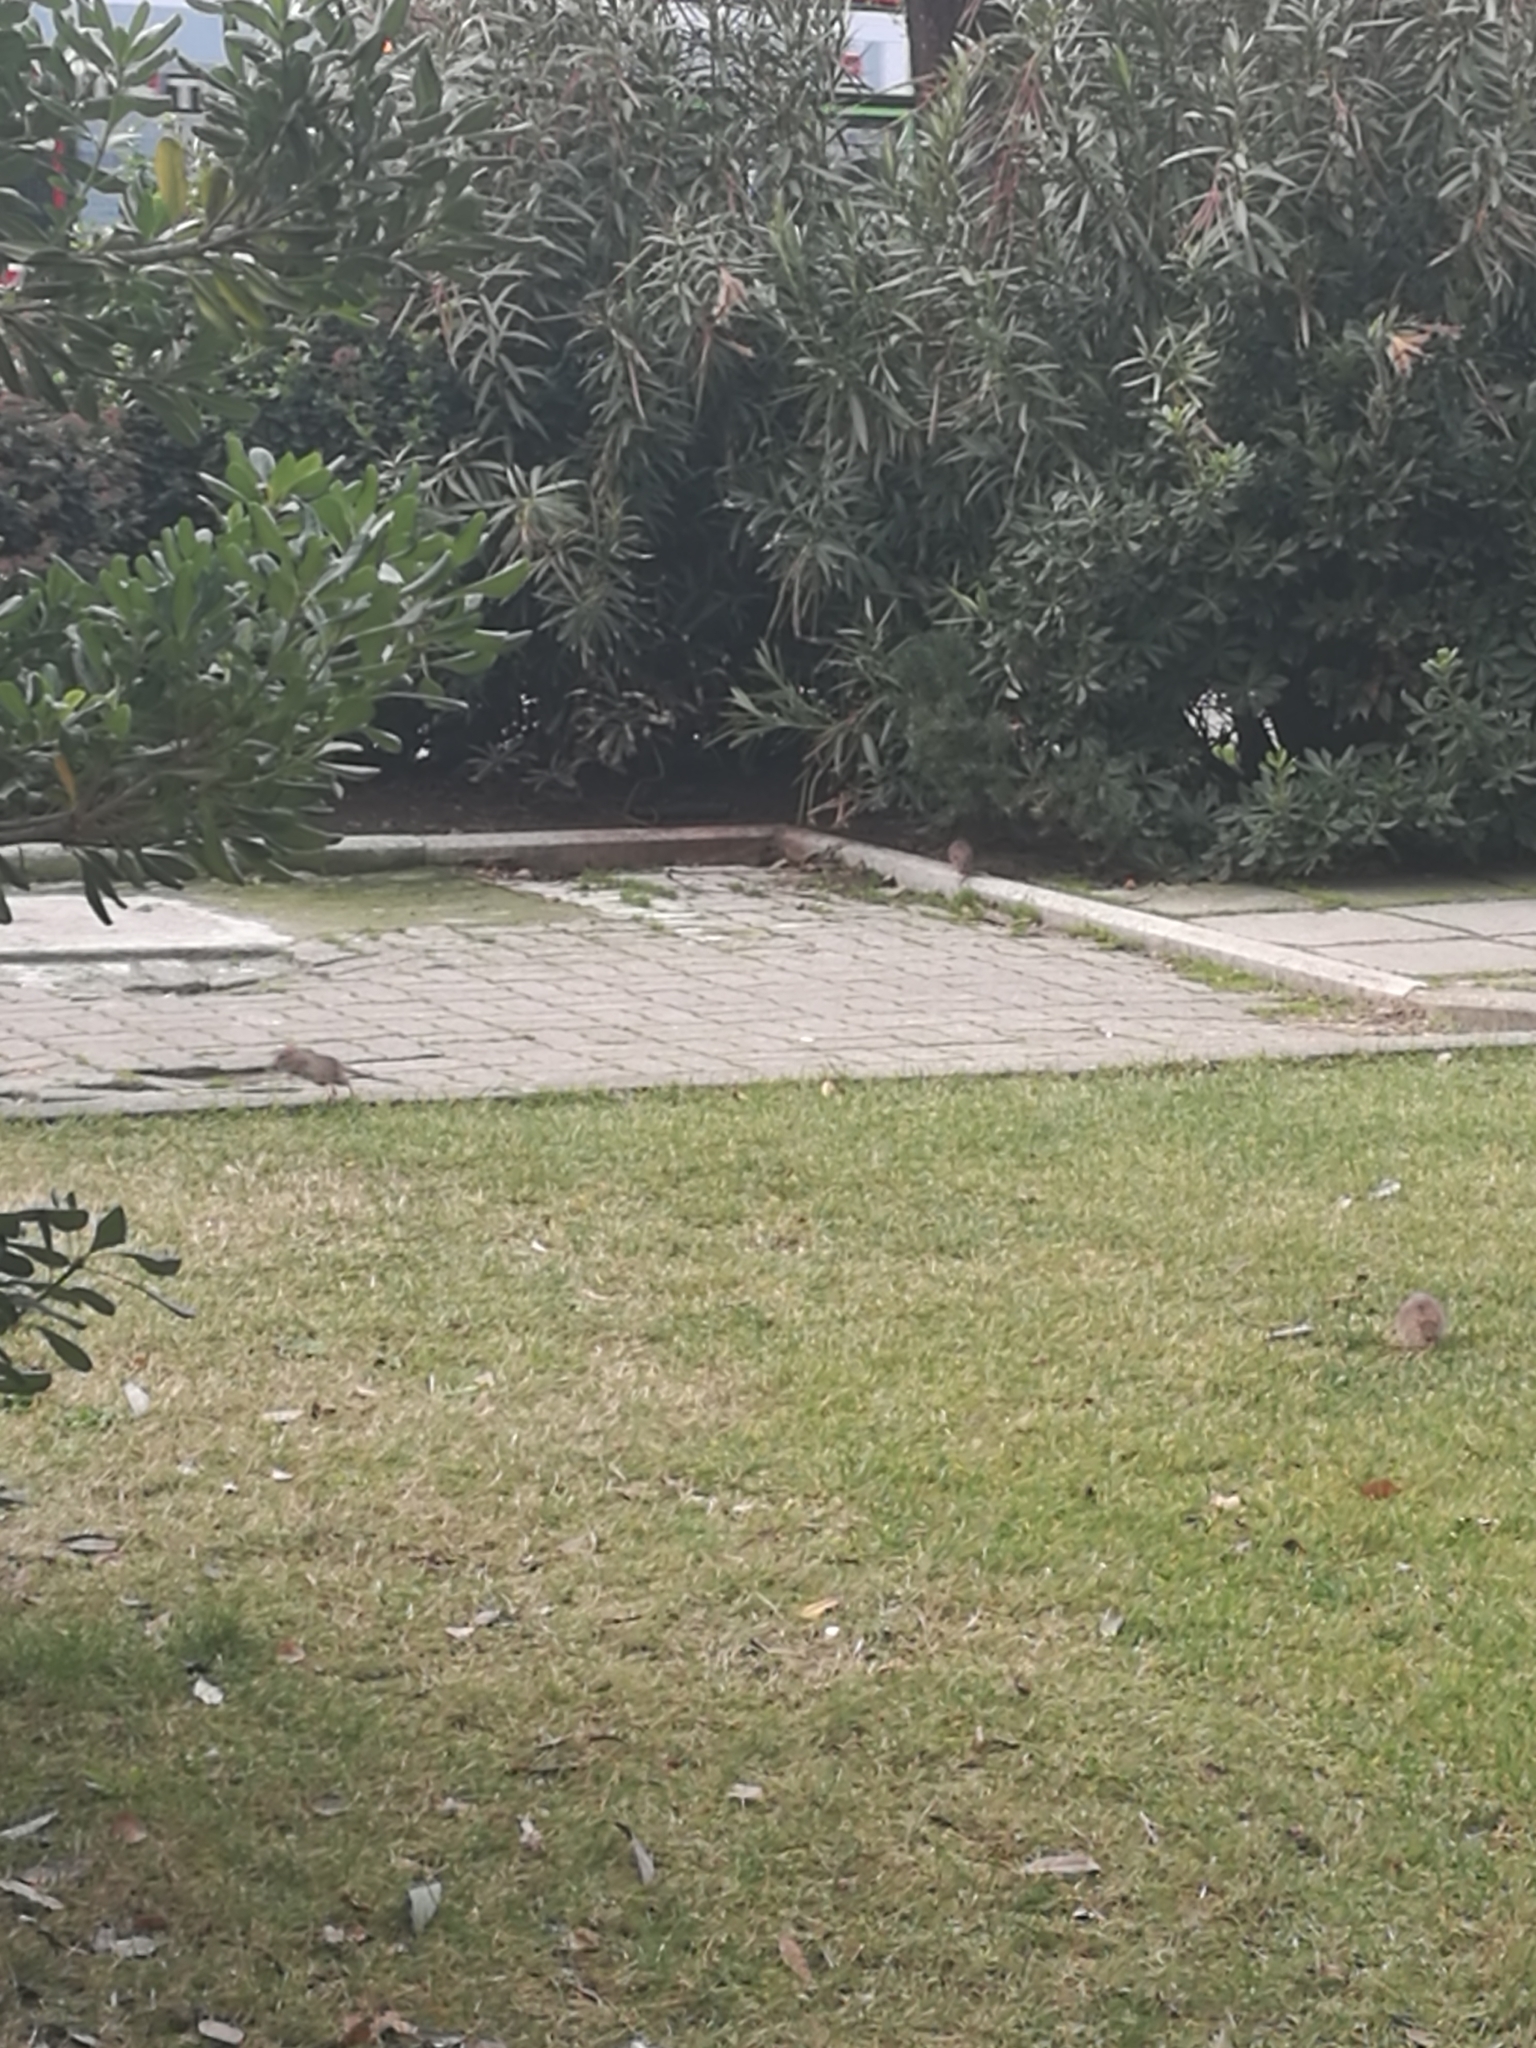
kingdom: Animalia
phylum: Chordata
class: Mammalia
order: Rodentia
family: Muridae
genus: Rattus
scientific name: Rattus norvegicus
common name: Brown rat
